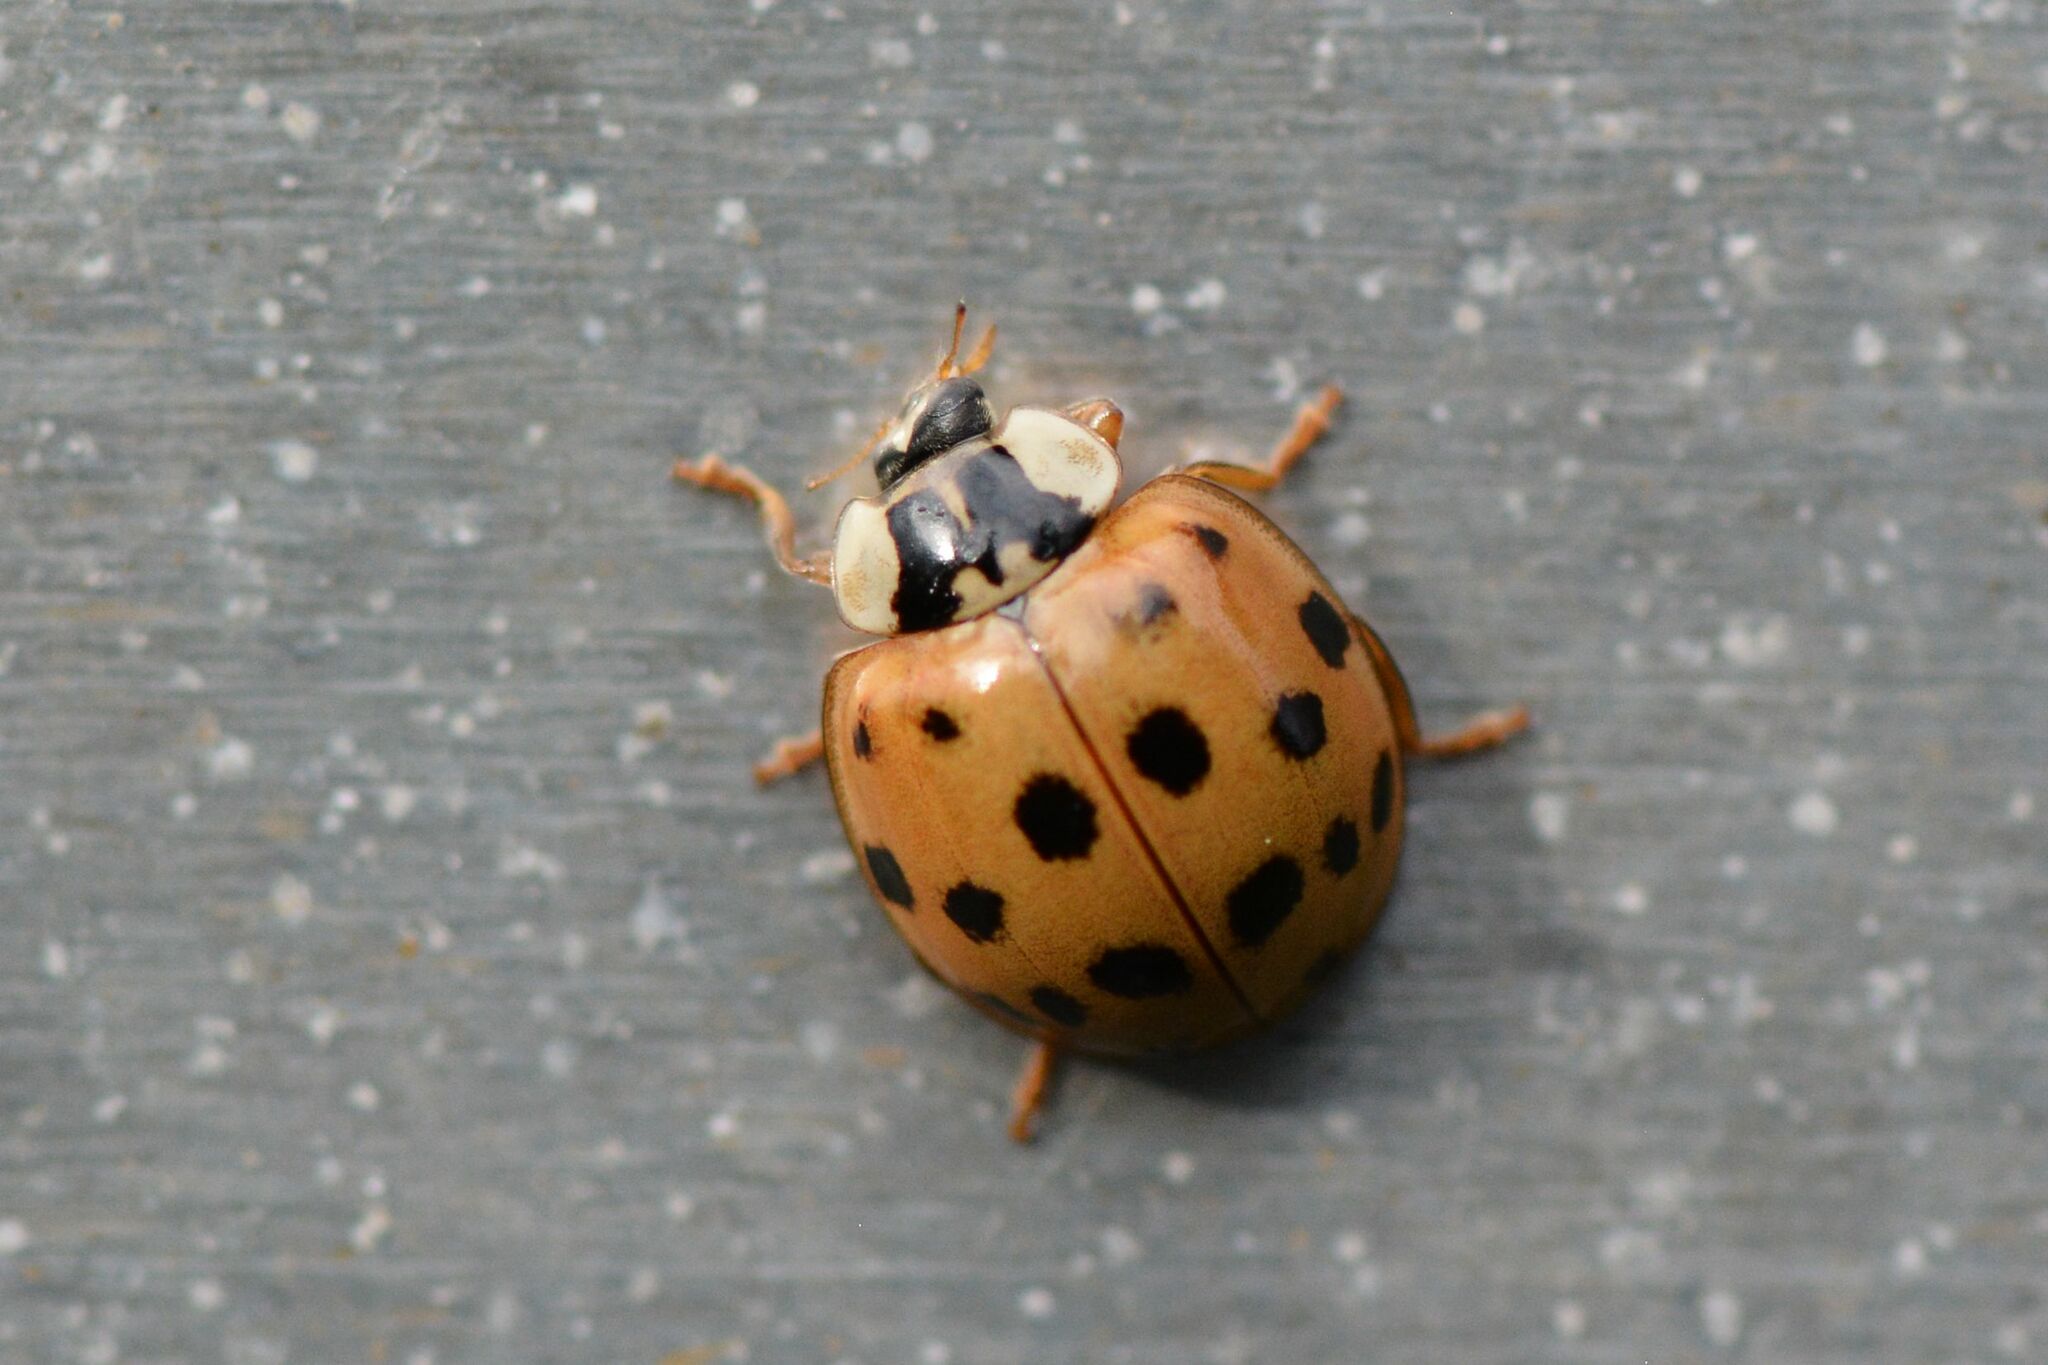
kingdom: Animalia
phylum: Arthropoda
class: Insecta
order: Coleoptera
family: Coccinellidae
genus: Harmonia
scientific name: Harmonia axyridis
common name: Harlequin ladybird
